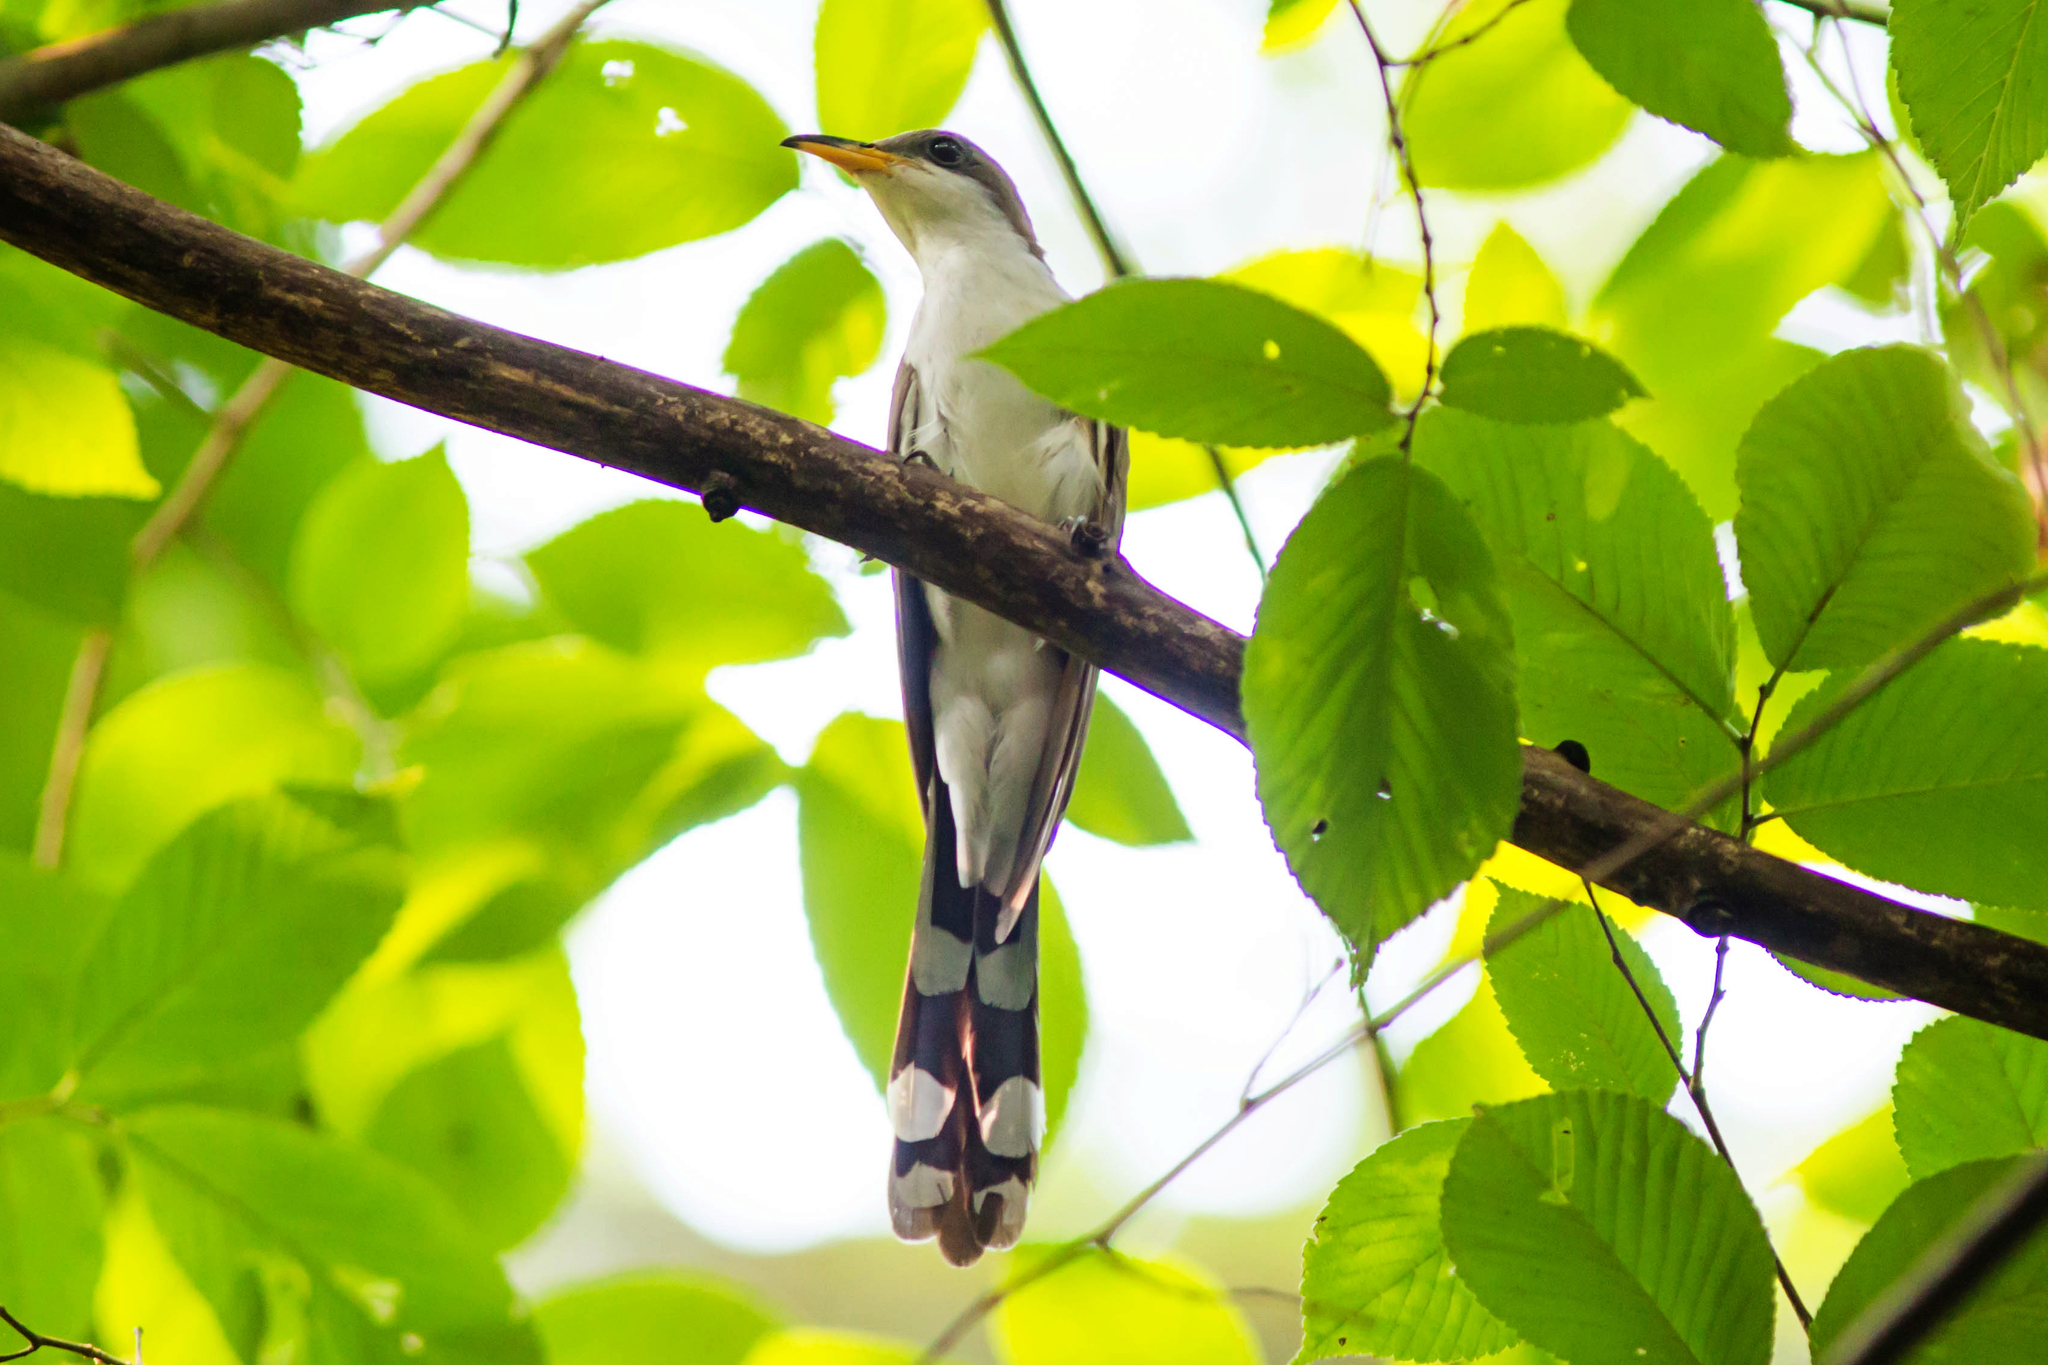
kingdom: Animalia
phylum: Chordata
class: Aves
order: Cuculiformes
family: Cuculidae
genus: Coccyzus
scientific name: Coccyzus americanus
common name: Yellow-billed cuckoo
